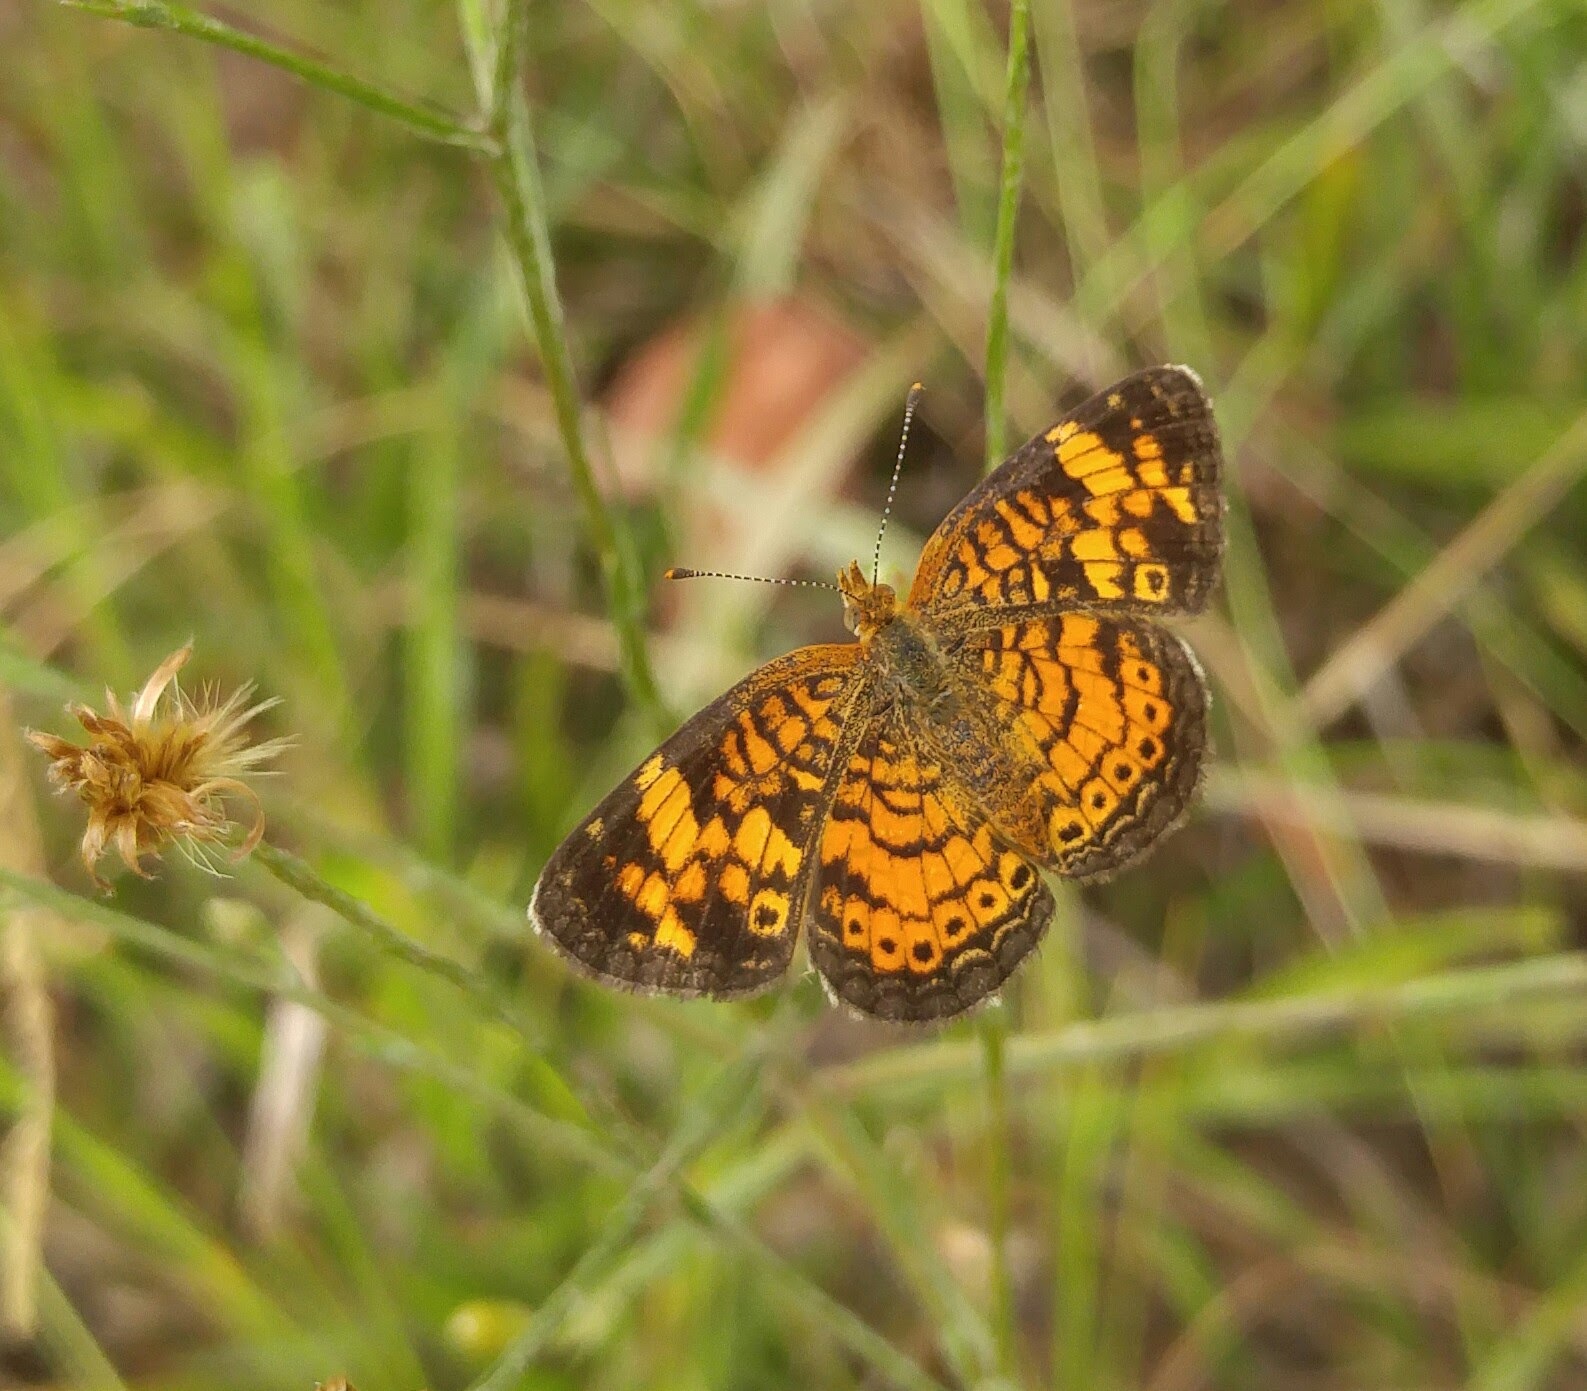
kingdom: Animalia
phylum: Arthropoda
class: Insecta
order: Lepidoptera
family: Nymphalidae
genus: Phyciodes
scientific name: Phyciodes tharos
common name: Pearl crescent
